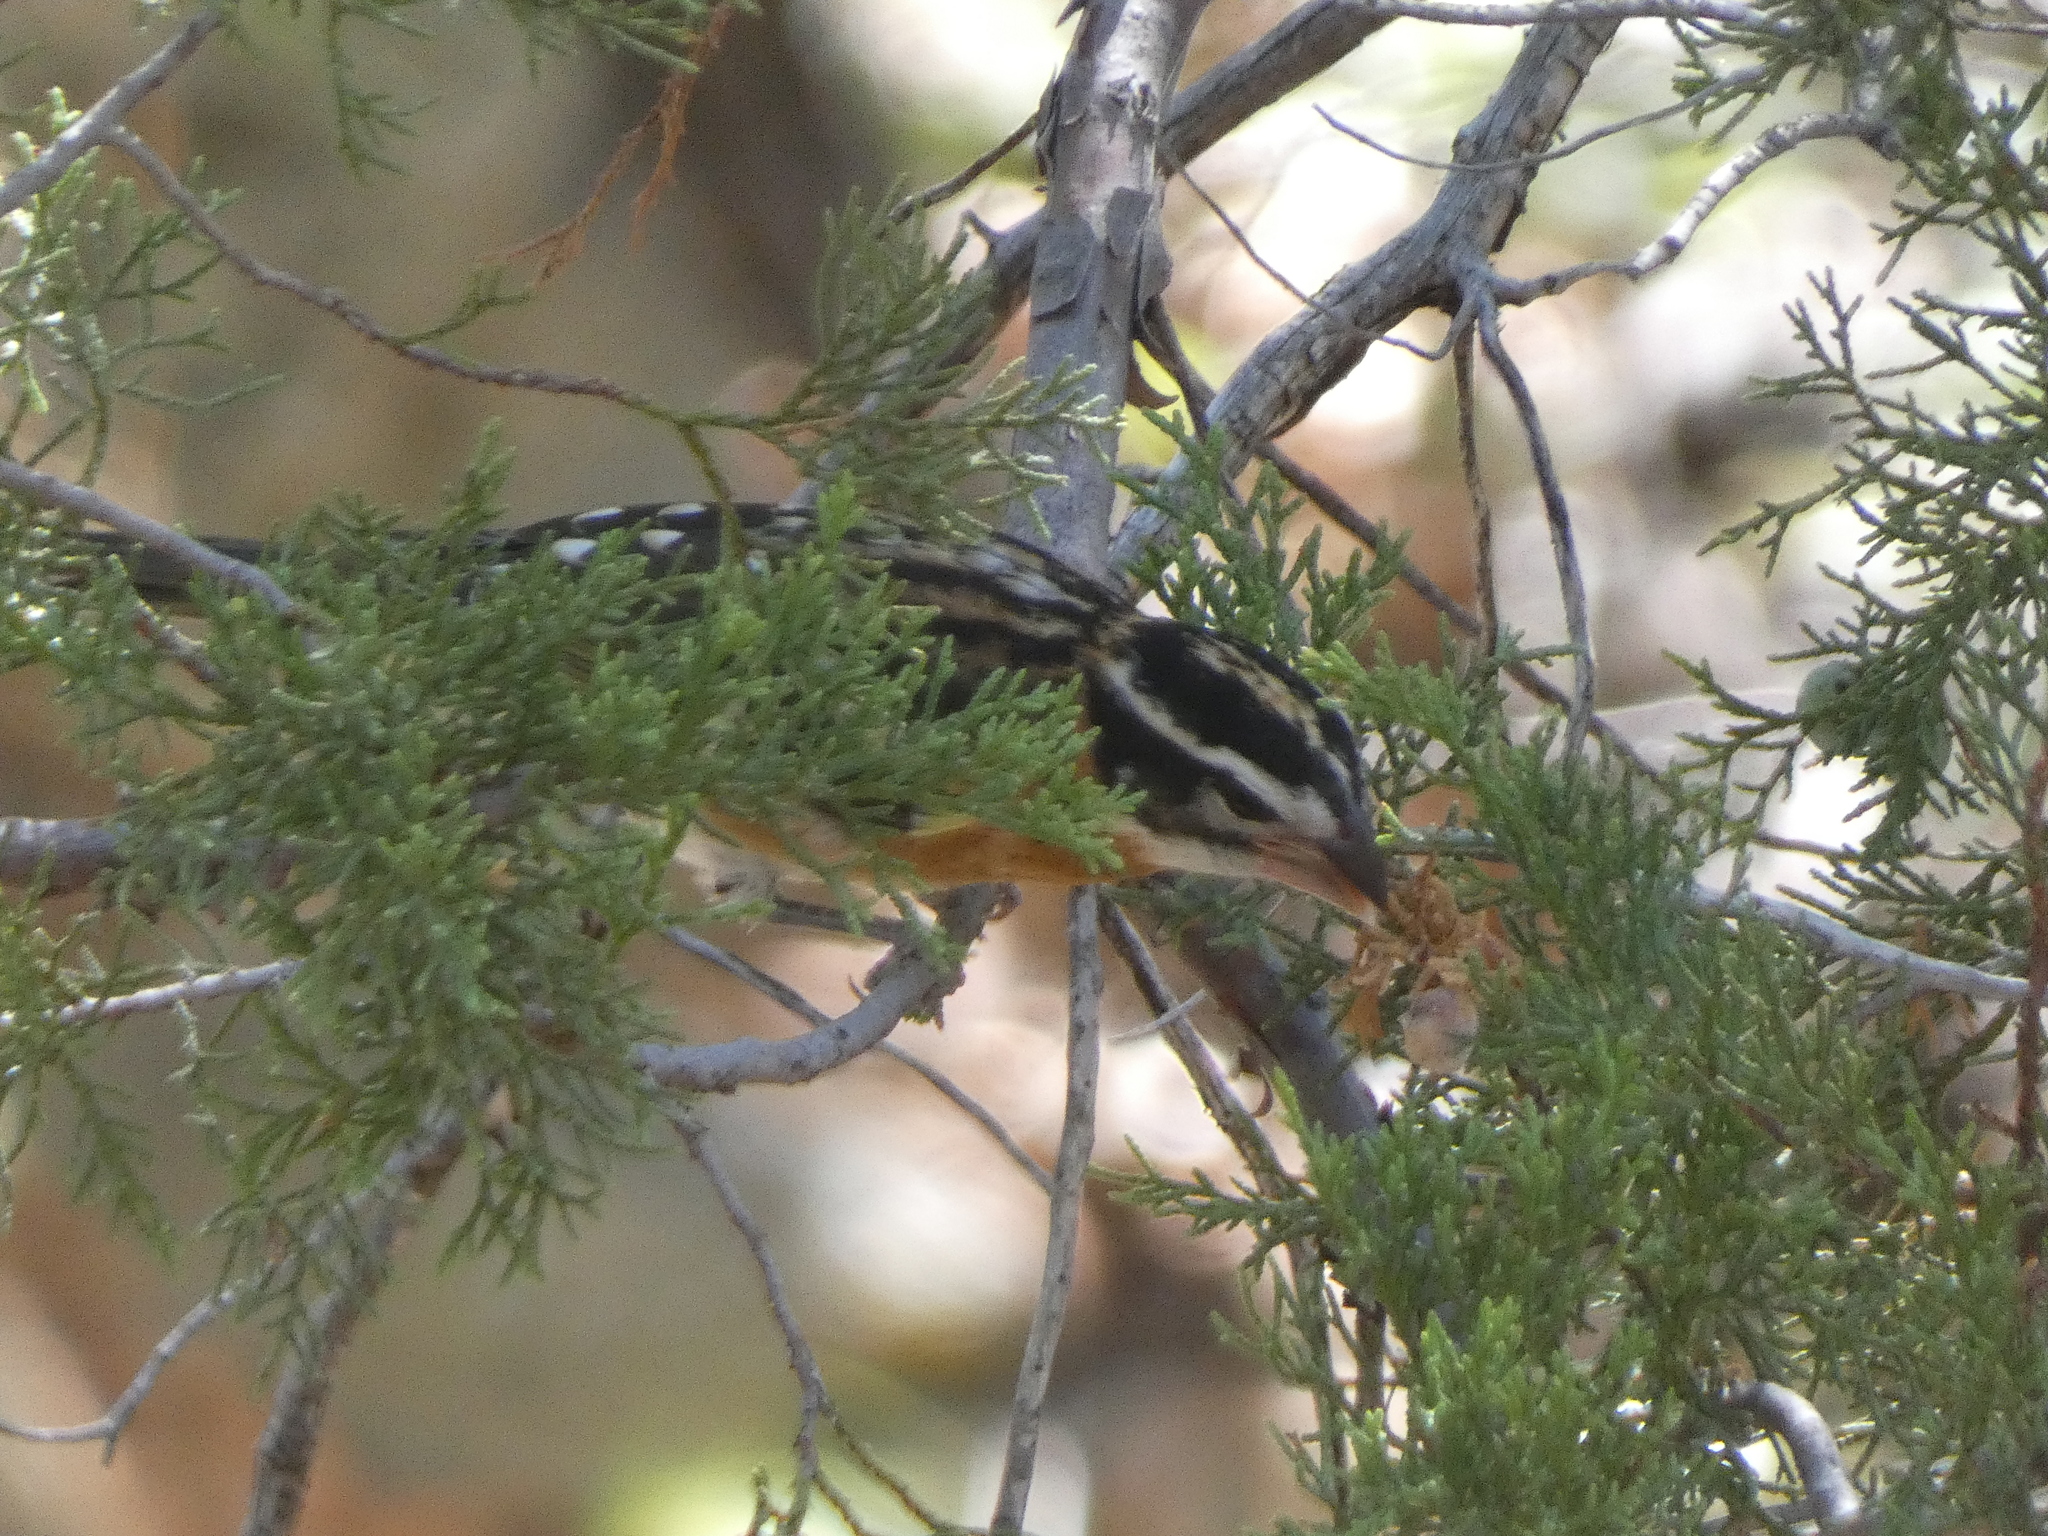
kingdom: Animalia
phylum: Chordata
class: Aves
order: Passeriformes
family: Cardinalidae
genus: Pheucticus
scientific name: Pheucticus melanocephalus
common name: Black-headed grosbeak
